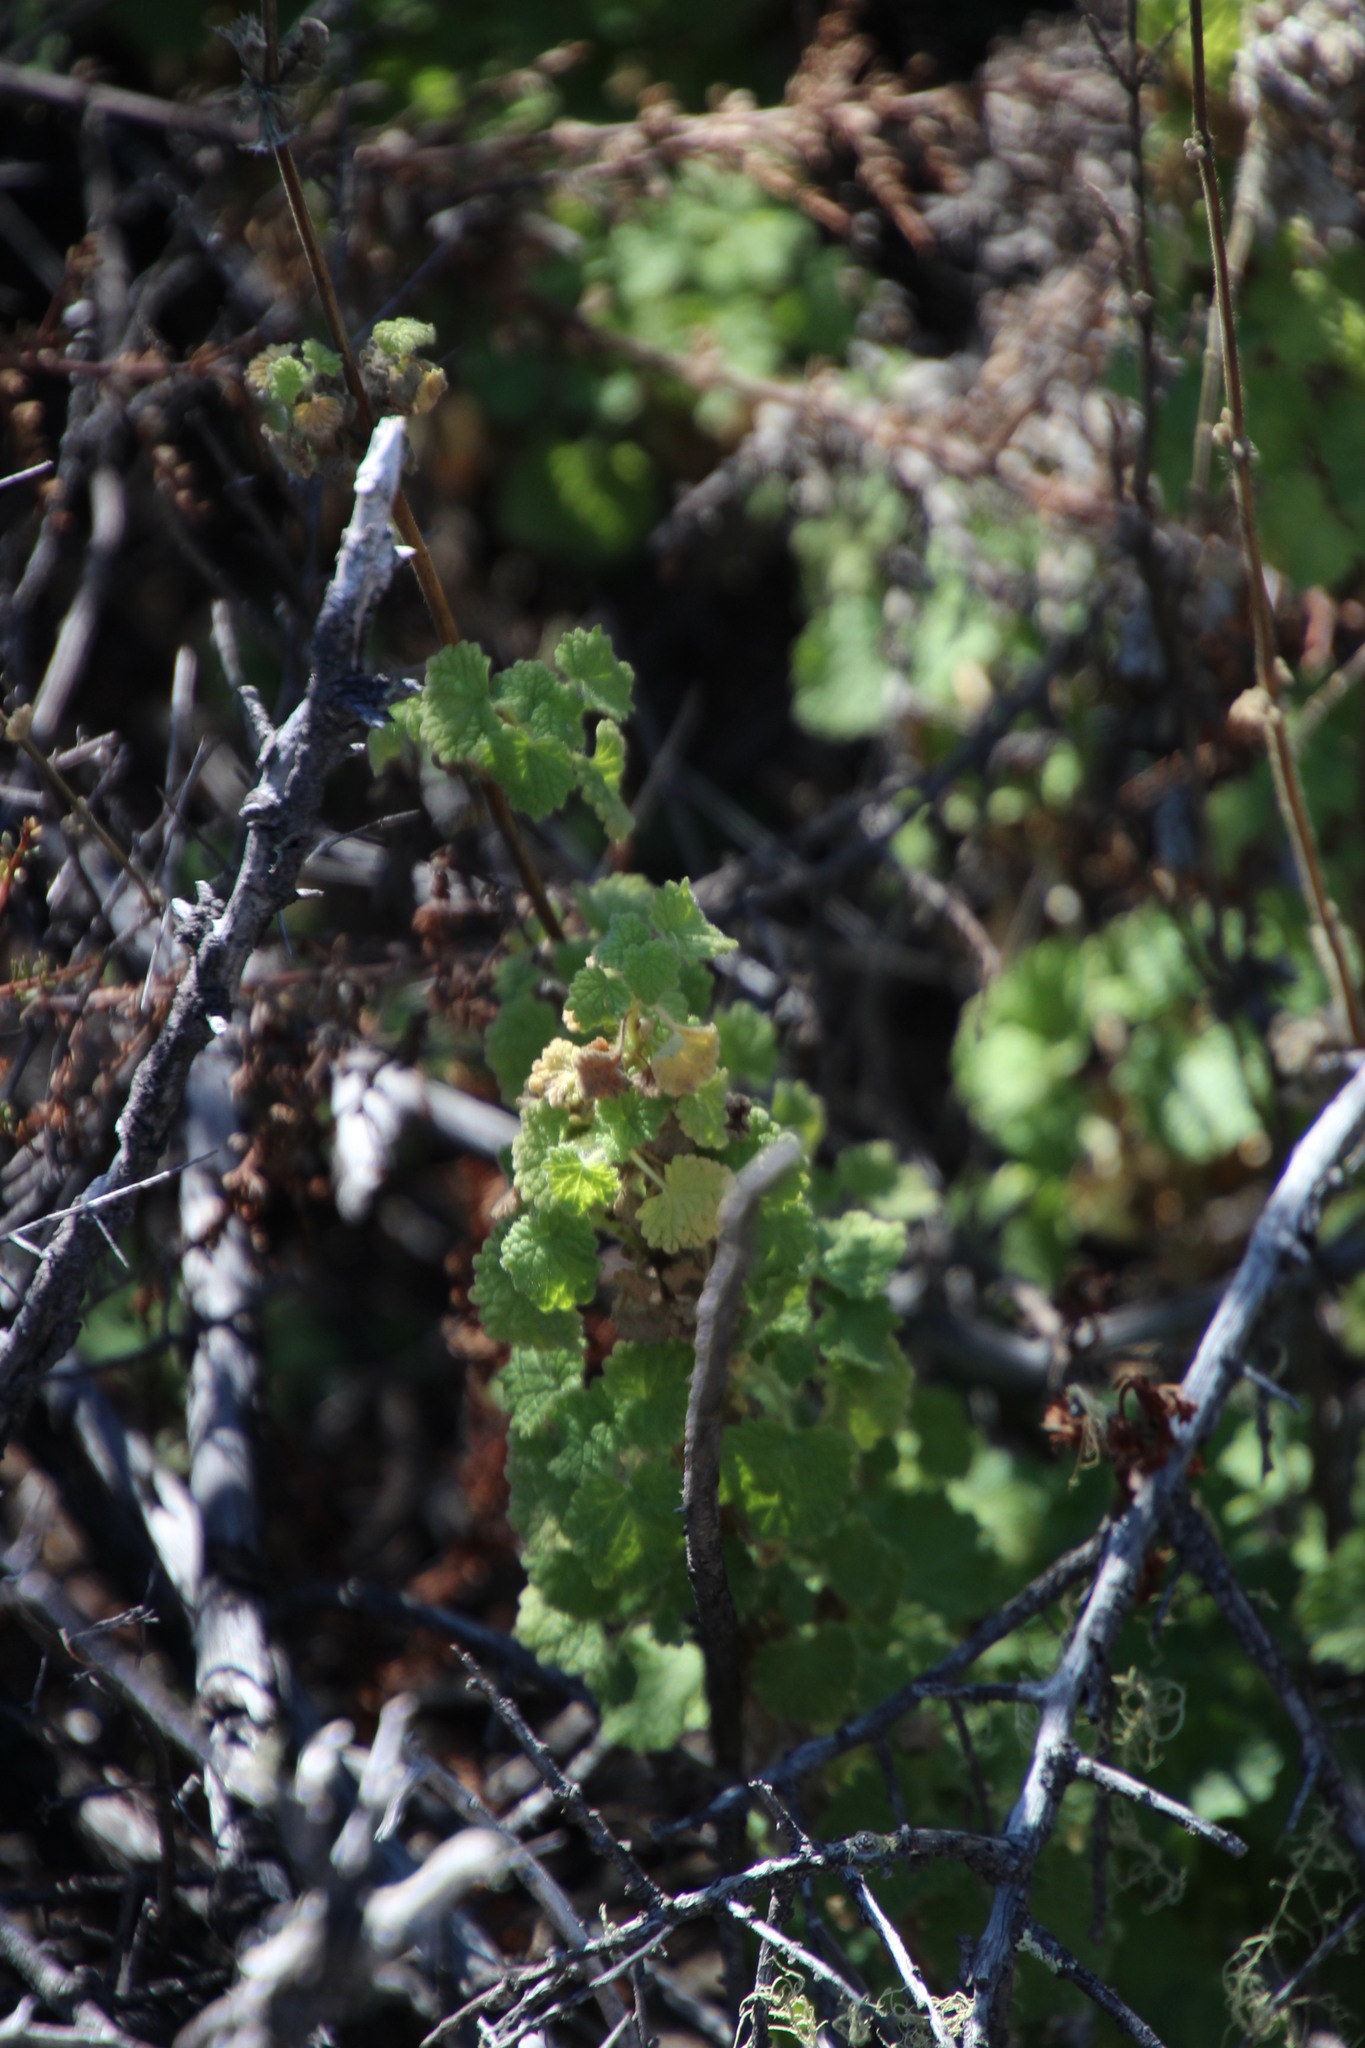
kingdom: Plantae
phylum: Tracheophyta
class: Magnoliopsida
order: Lamiales
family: Lamiaceae
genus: Pseudodictamnus
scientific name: Pseudodictamnus africanus
